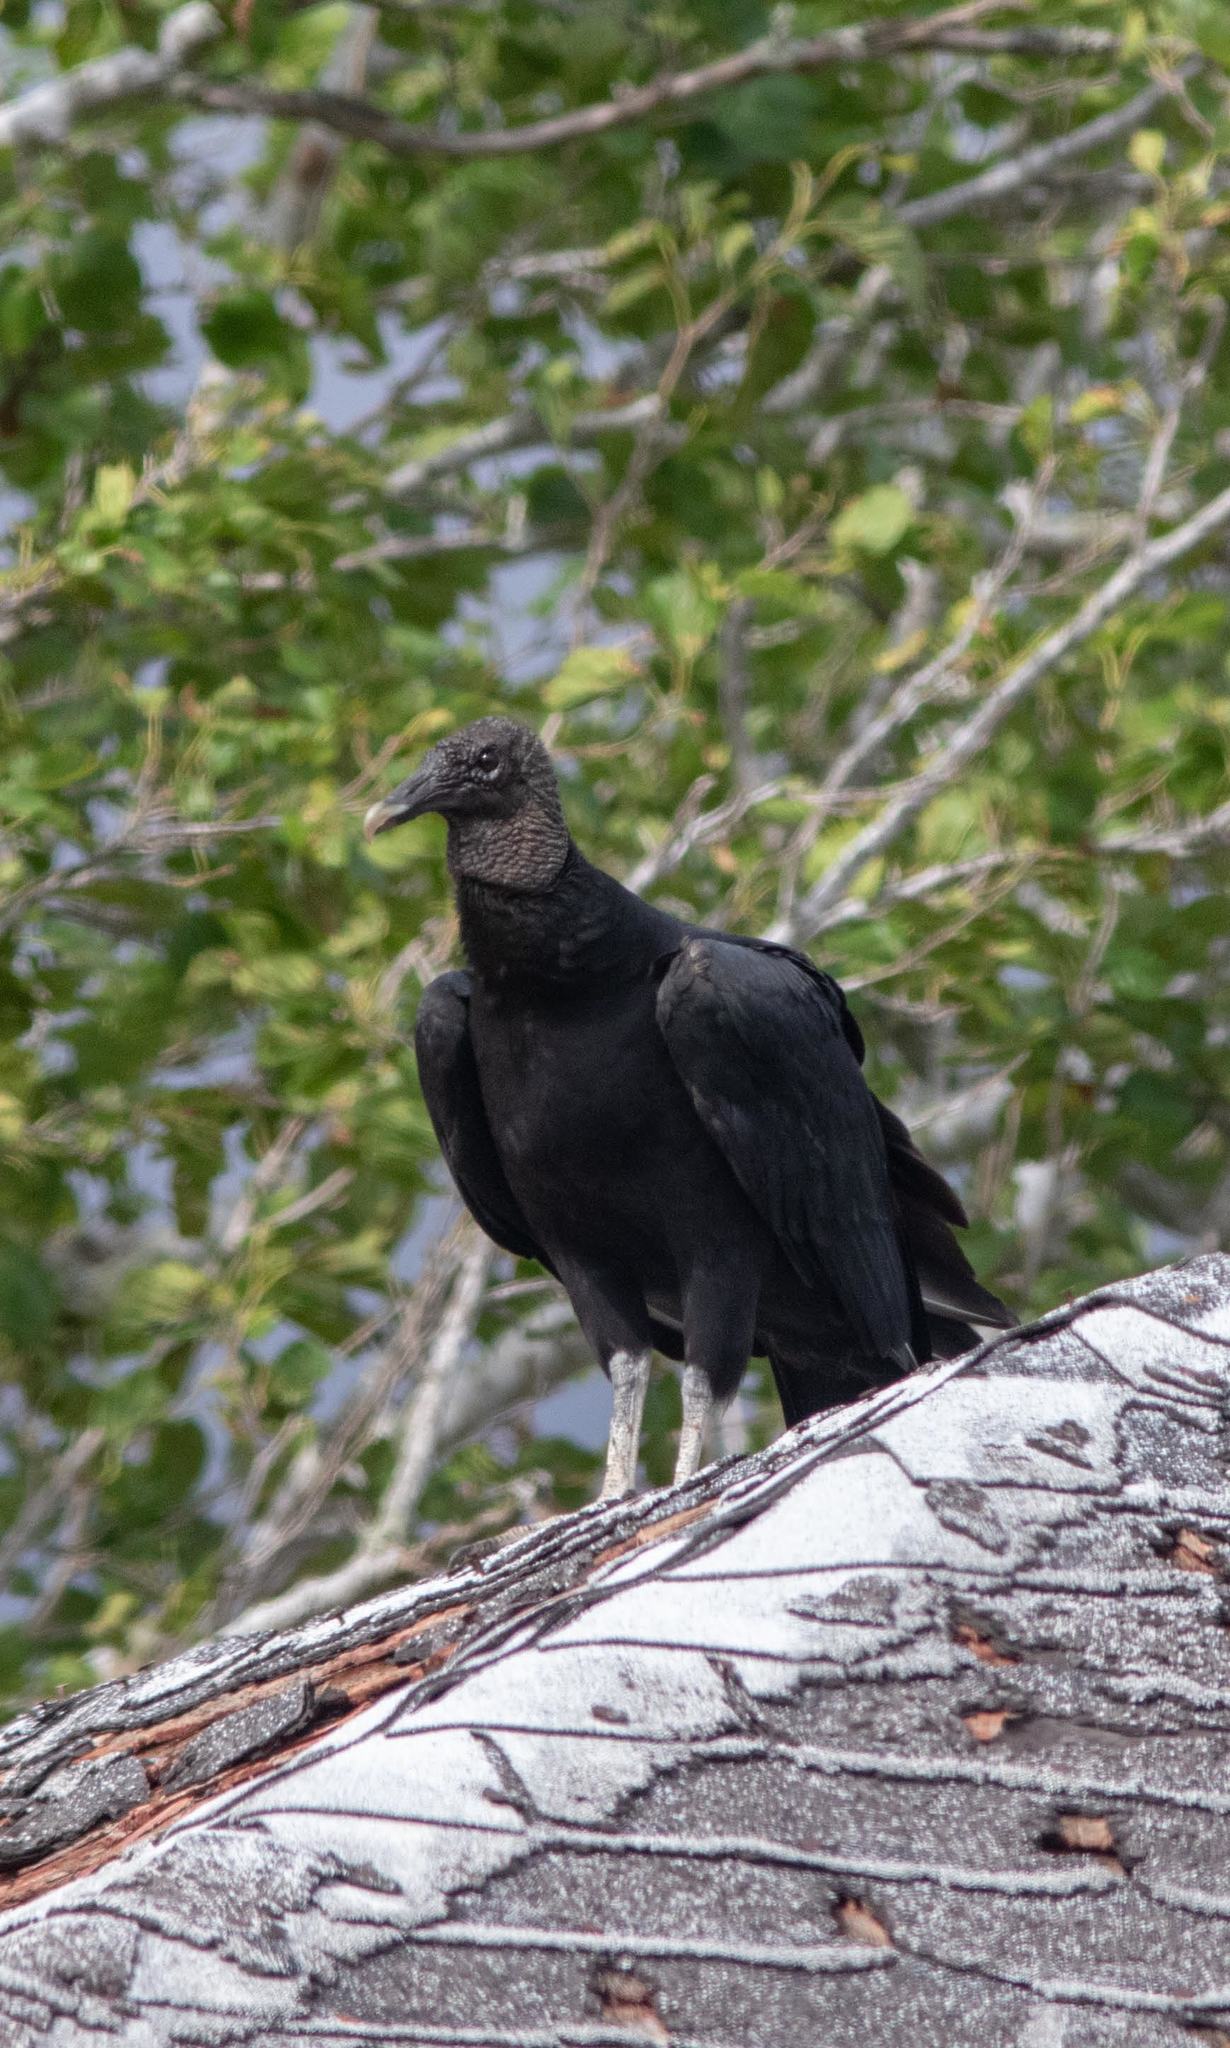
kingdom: Animalia
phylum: Chordata
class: Aves
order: Accipitriformes
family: Cathartidae
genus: Coragyps
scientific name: Coragyps atratus
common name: Black vulture
